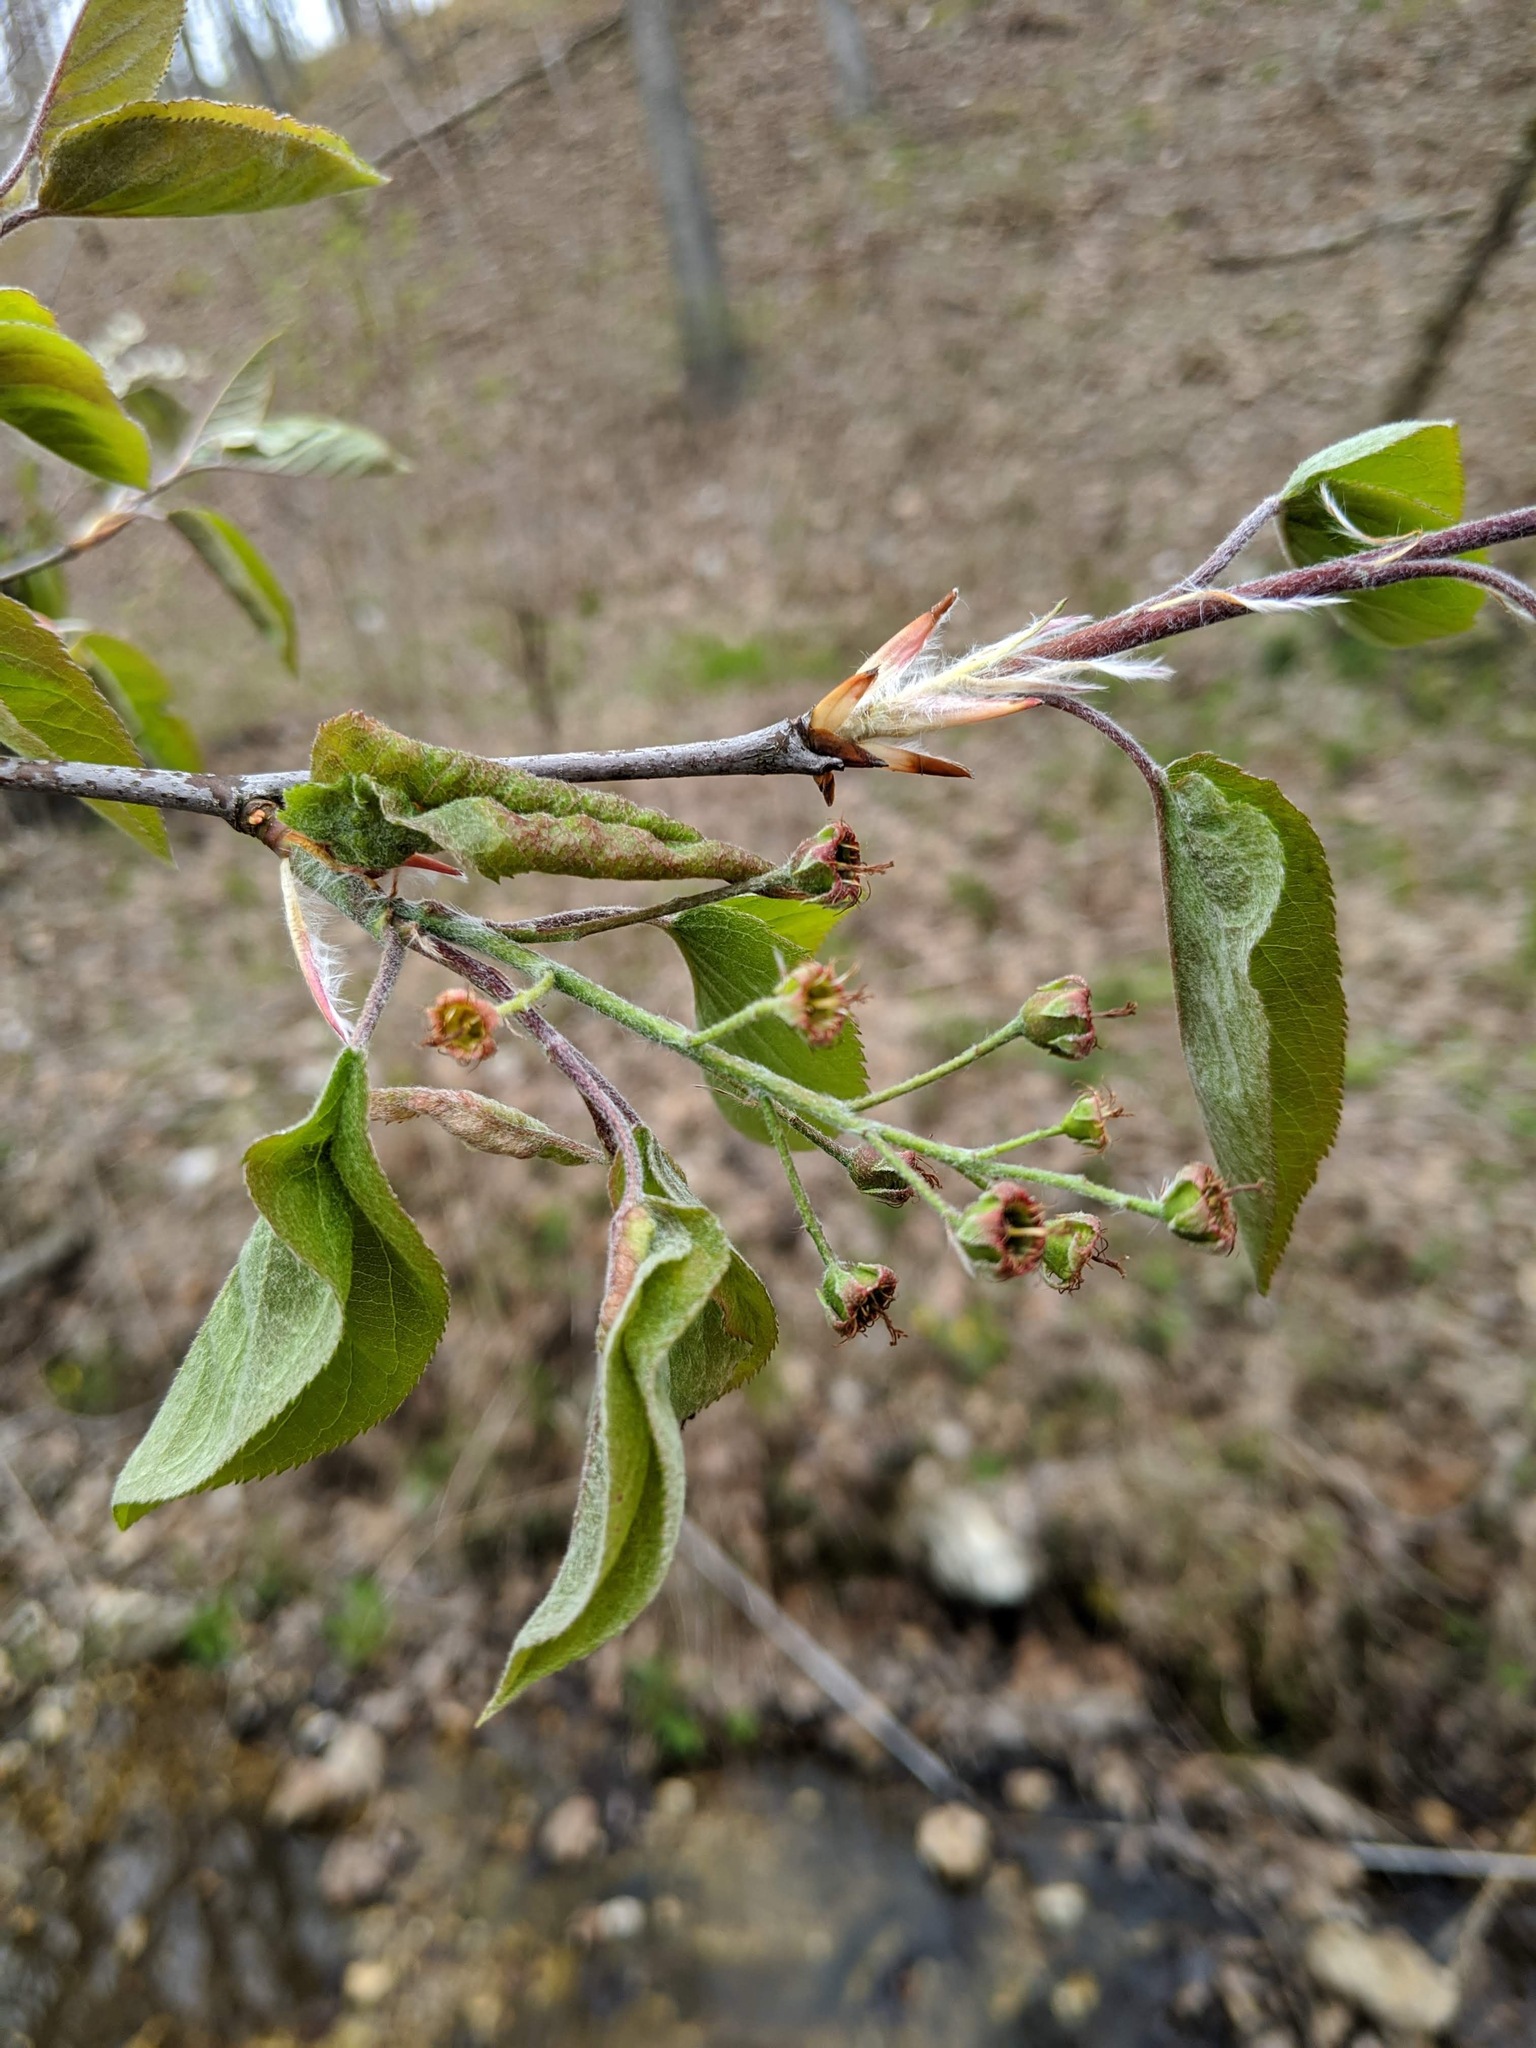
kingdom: Plantae
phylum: Tracheophyta
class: Magnoliopsida
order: Rosales
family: Rosaceae
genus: Amelanchier
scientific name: Amelanchier arborea
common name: Downy serviceberry
